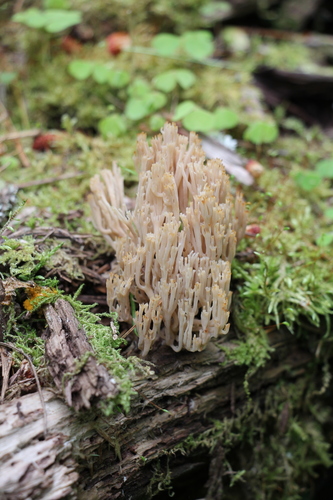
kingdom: Fungi
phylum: Basidiomycota
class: Agaricomycetes
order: Russulales
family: Auriscalpiaceae
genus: Artomyces
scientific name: Artomyces pyxidatus
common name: Crown-tipped coral fungus
